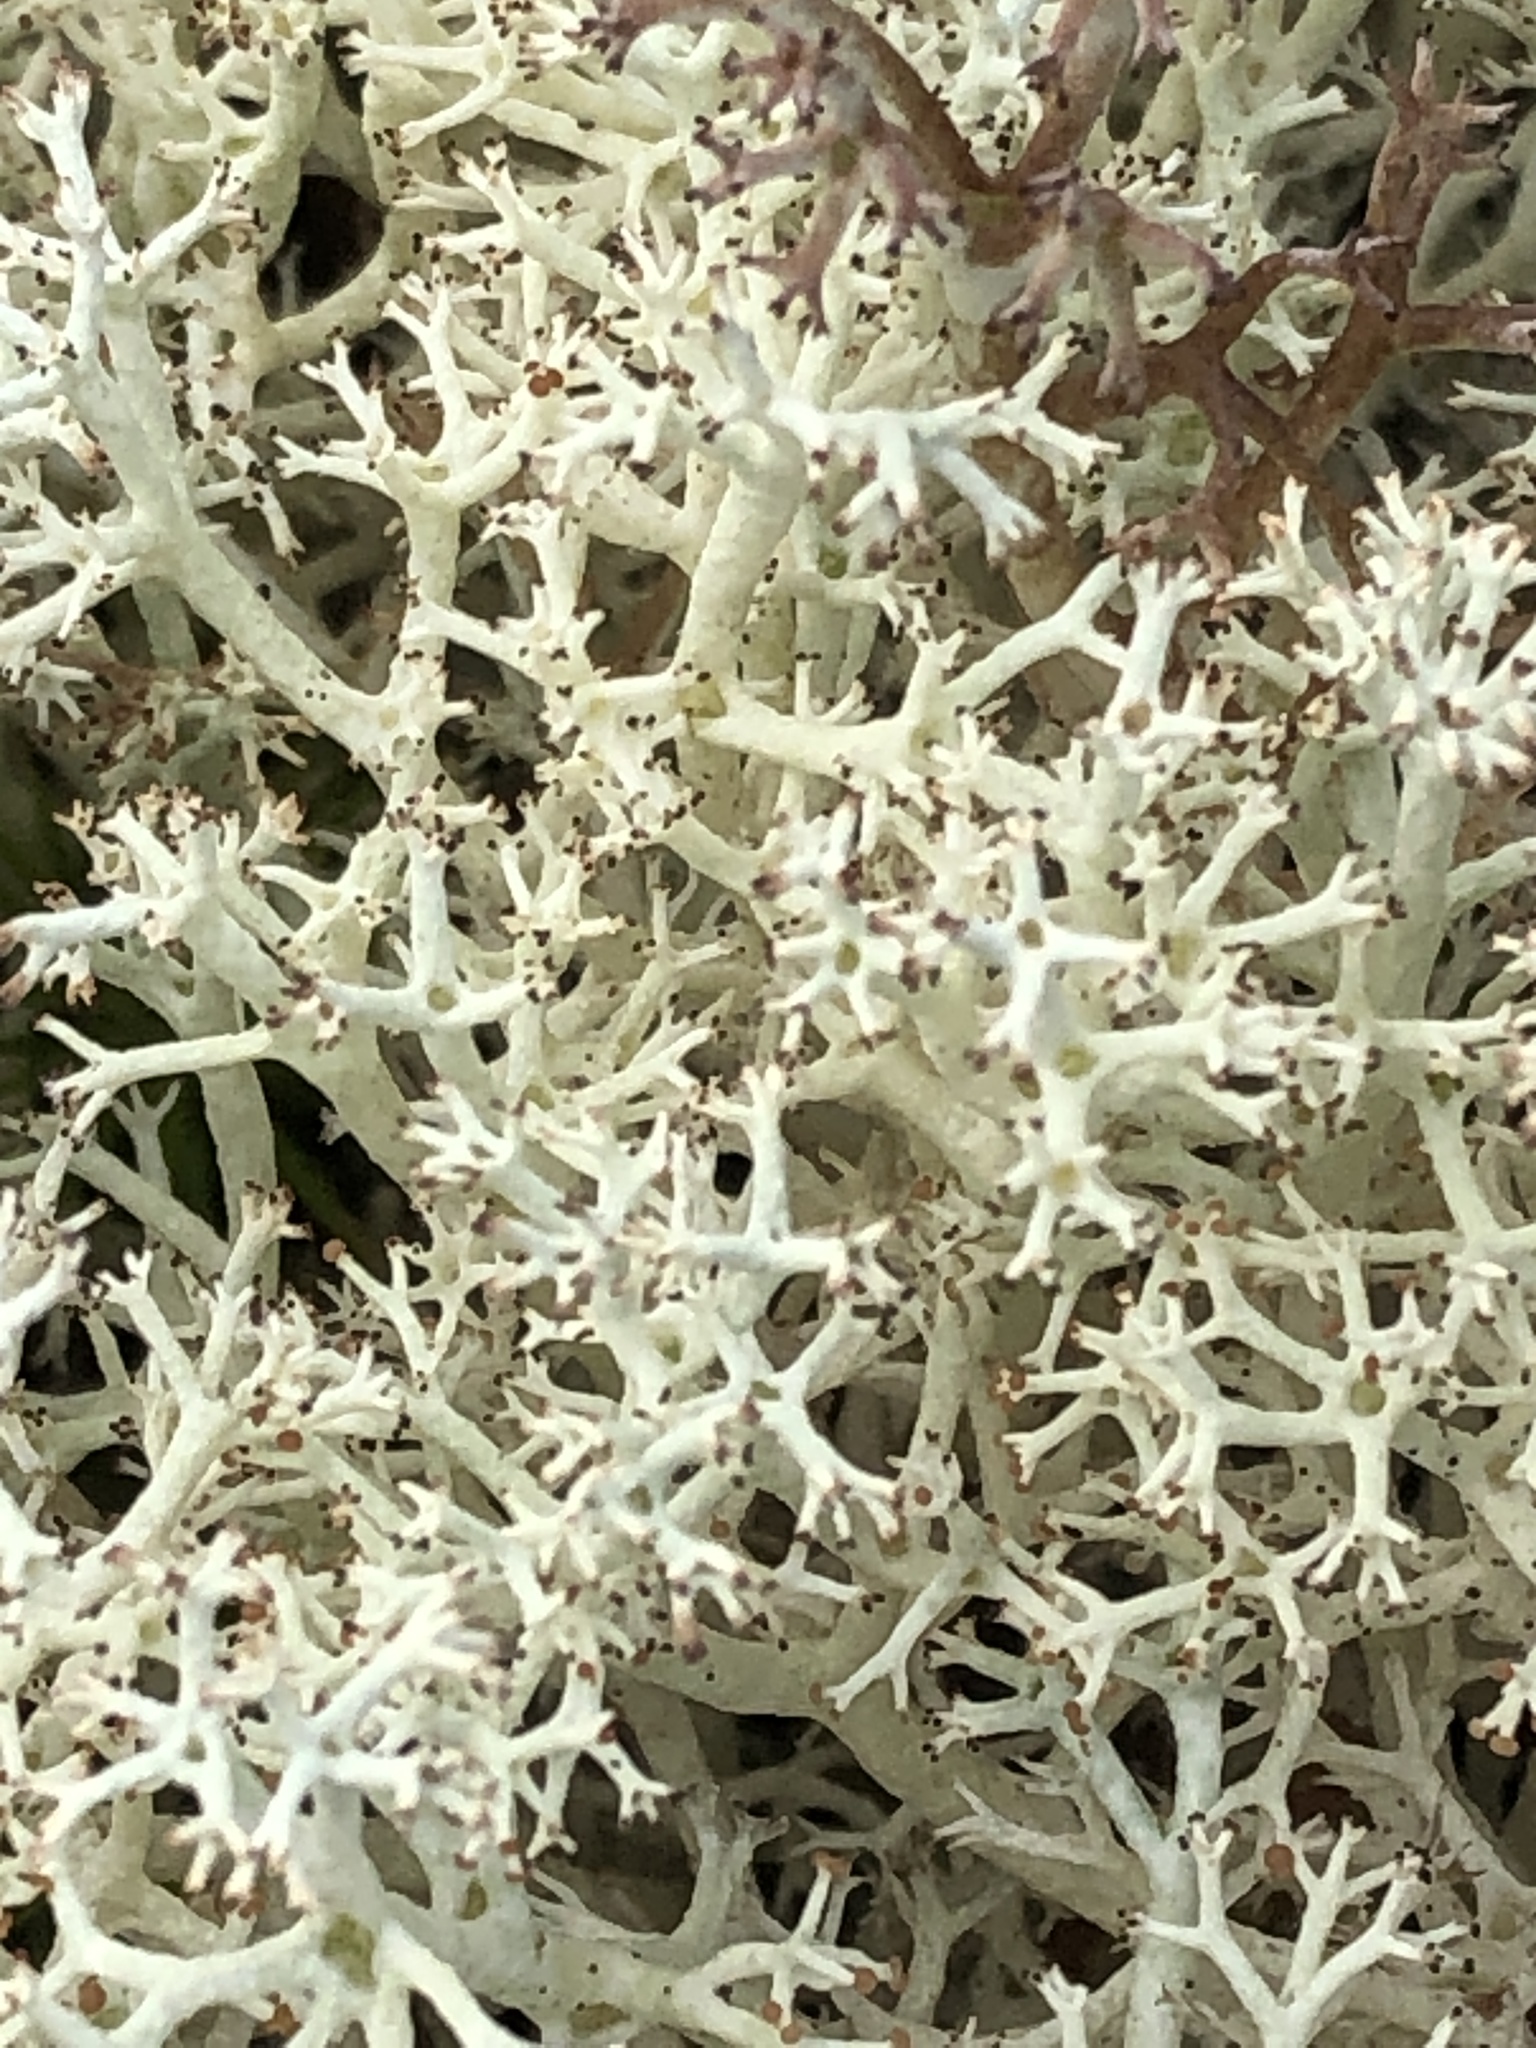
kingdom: Fungi
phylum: Ascomycota
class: Lecanoromycetes
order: Lecanorales
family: Cladoniaceae
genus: Cladonia
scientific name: Cladonia stellaris
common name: Star-tipped reindeer lichen
